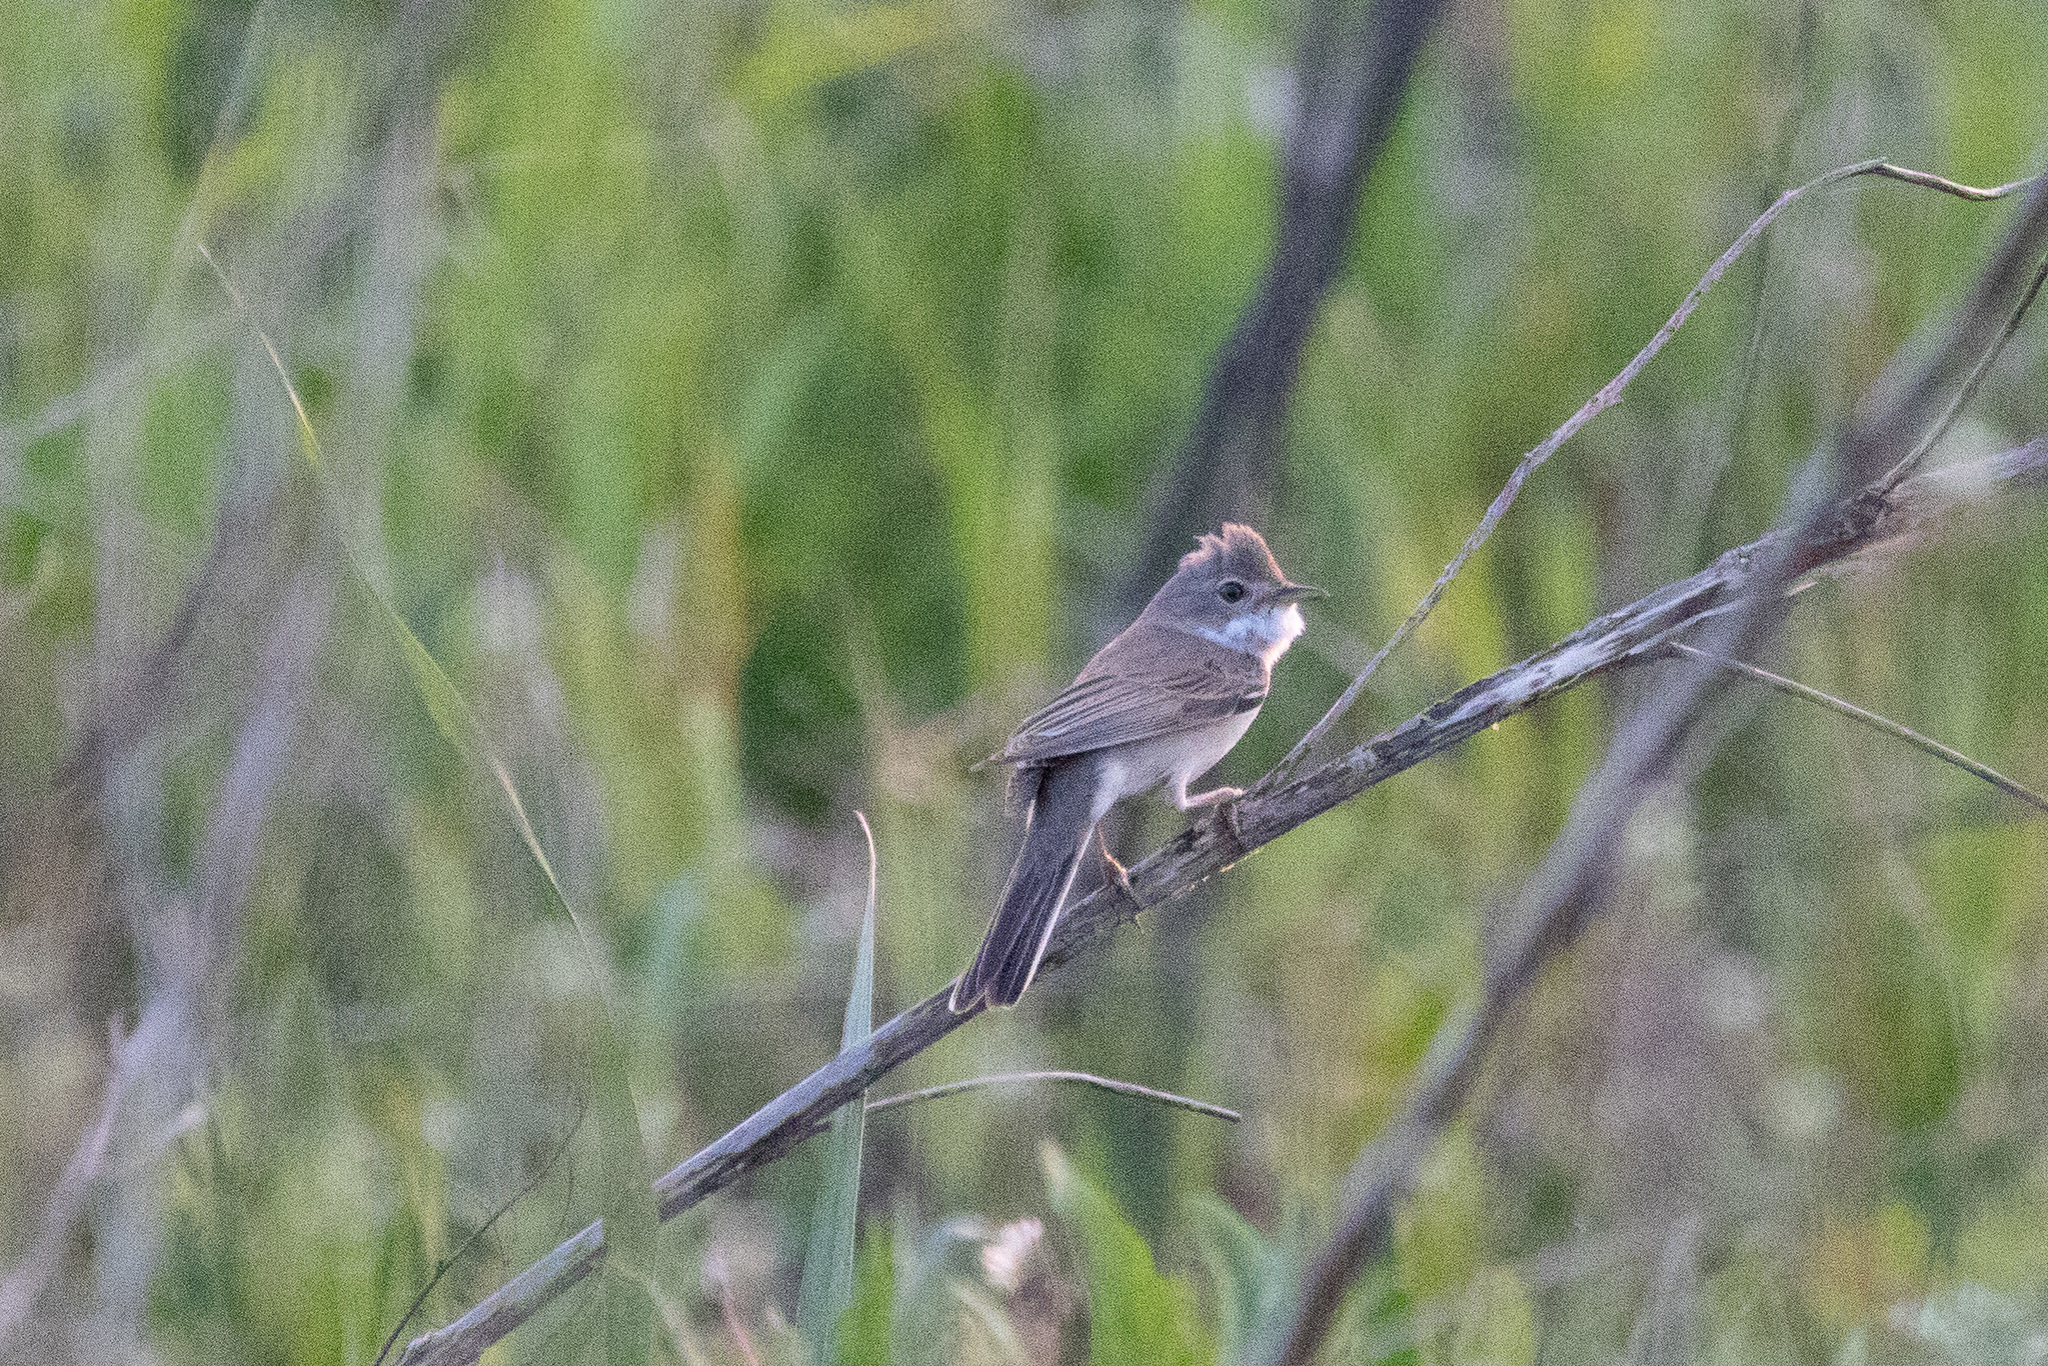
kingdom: Animalia
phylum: Chordata
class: Aves
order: Passeriformes
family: Sylviidae
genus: Sylvia
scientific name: Sylvia communis
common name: Common whitethroat
